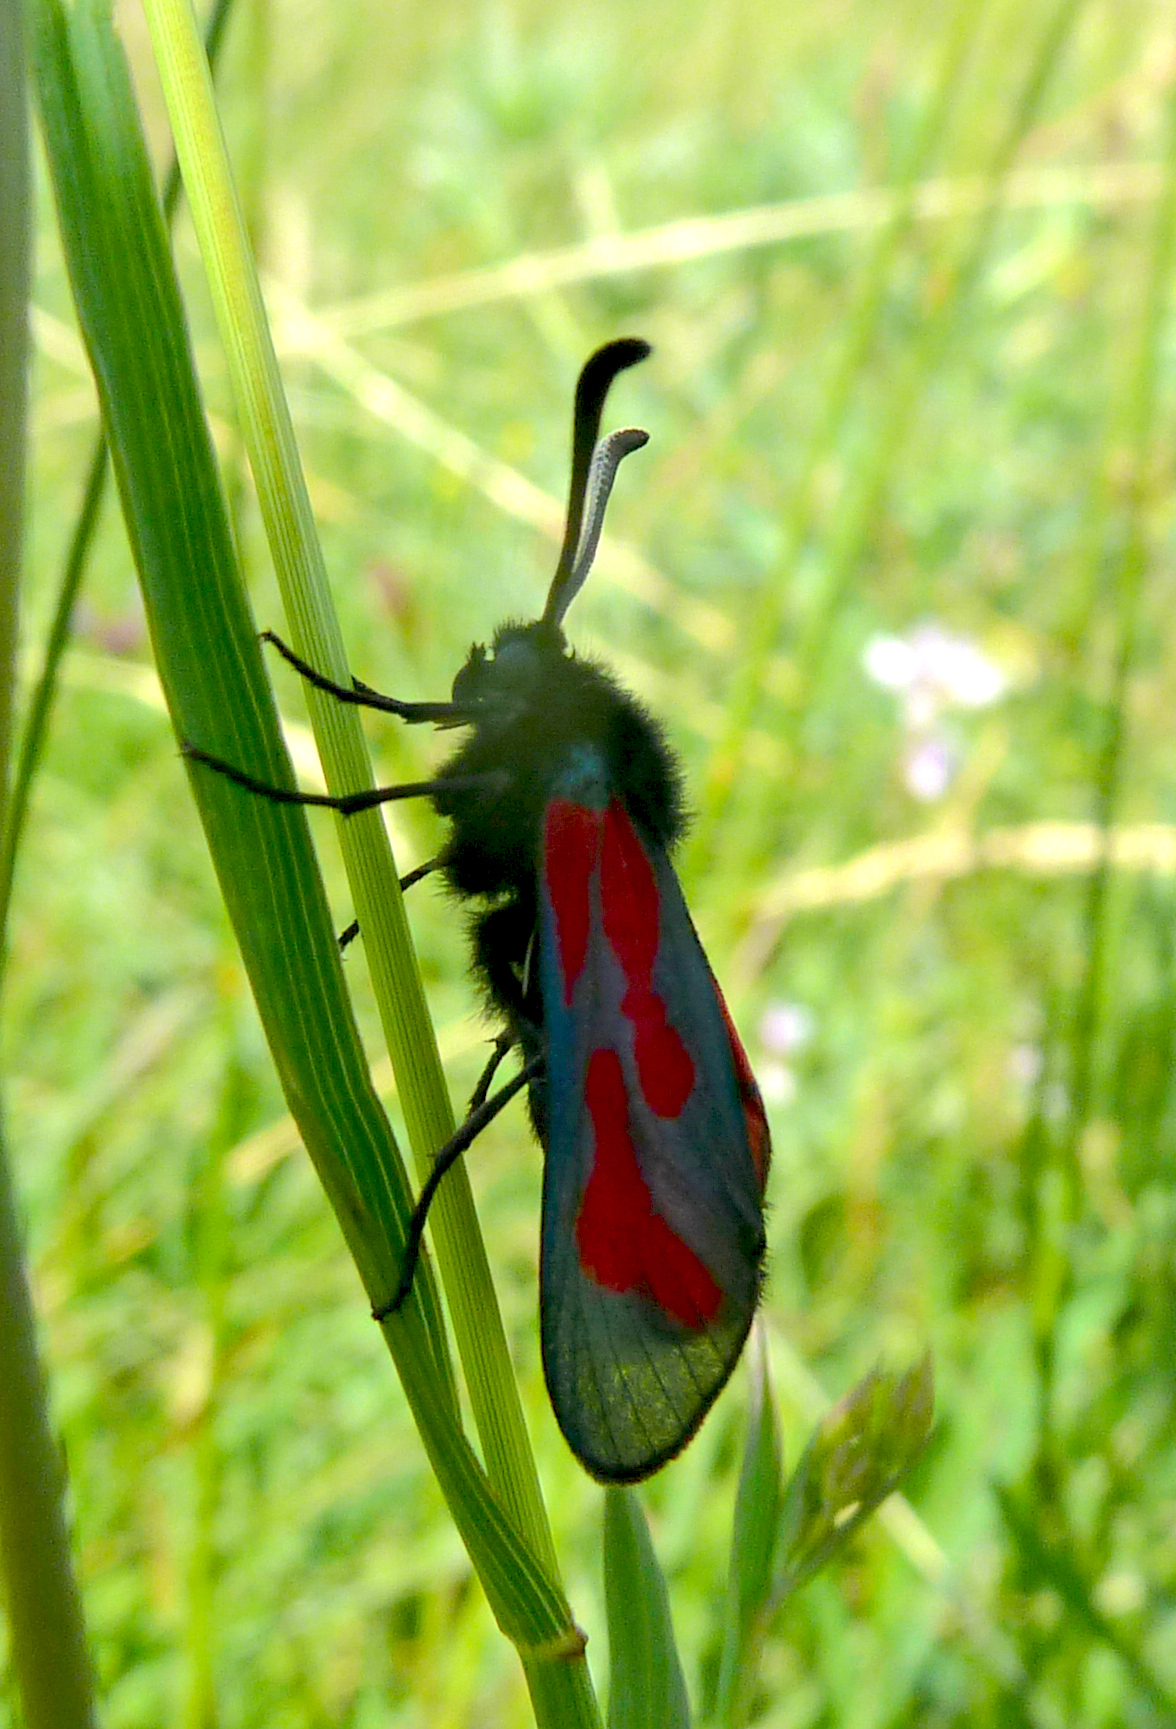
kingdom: Animalia
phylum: Arthropoda
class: Insecta
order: Lepidoptera
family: Zygaenidae
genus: Zygaena
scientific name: Zygaena
